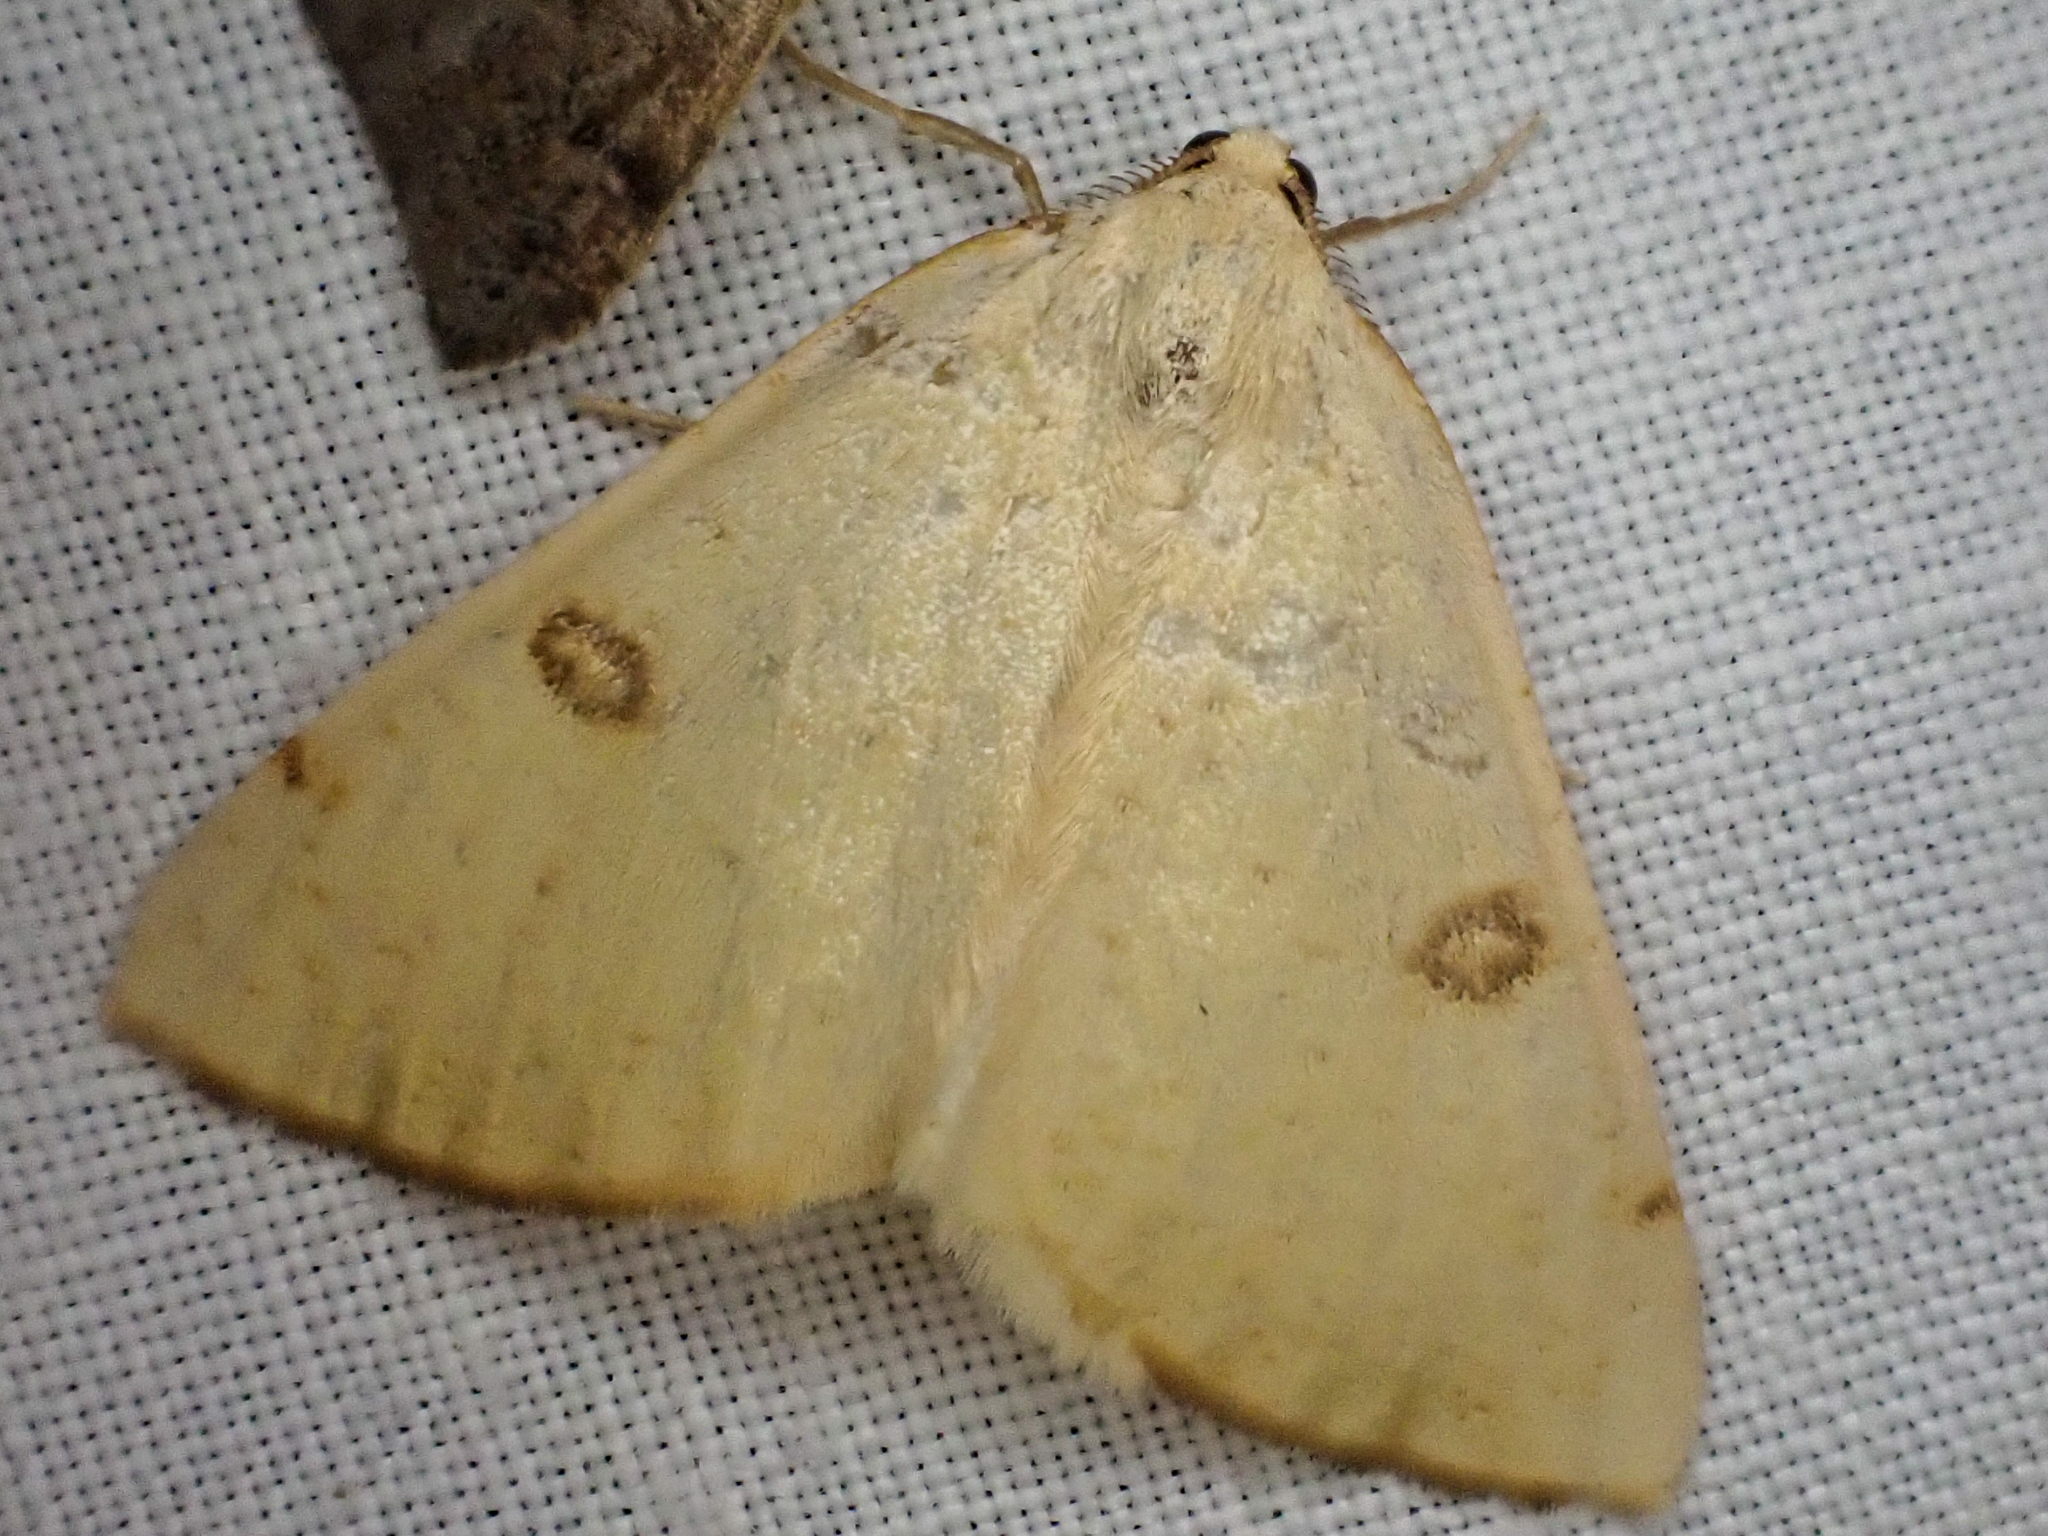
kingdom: Animalia
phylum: Arthropoda
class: Insecta
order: Lepidoptera
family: Geometridae
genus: Hesperumia
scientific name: Hesperumia sulphuraria
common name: Sulphur moth
